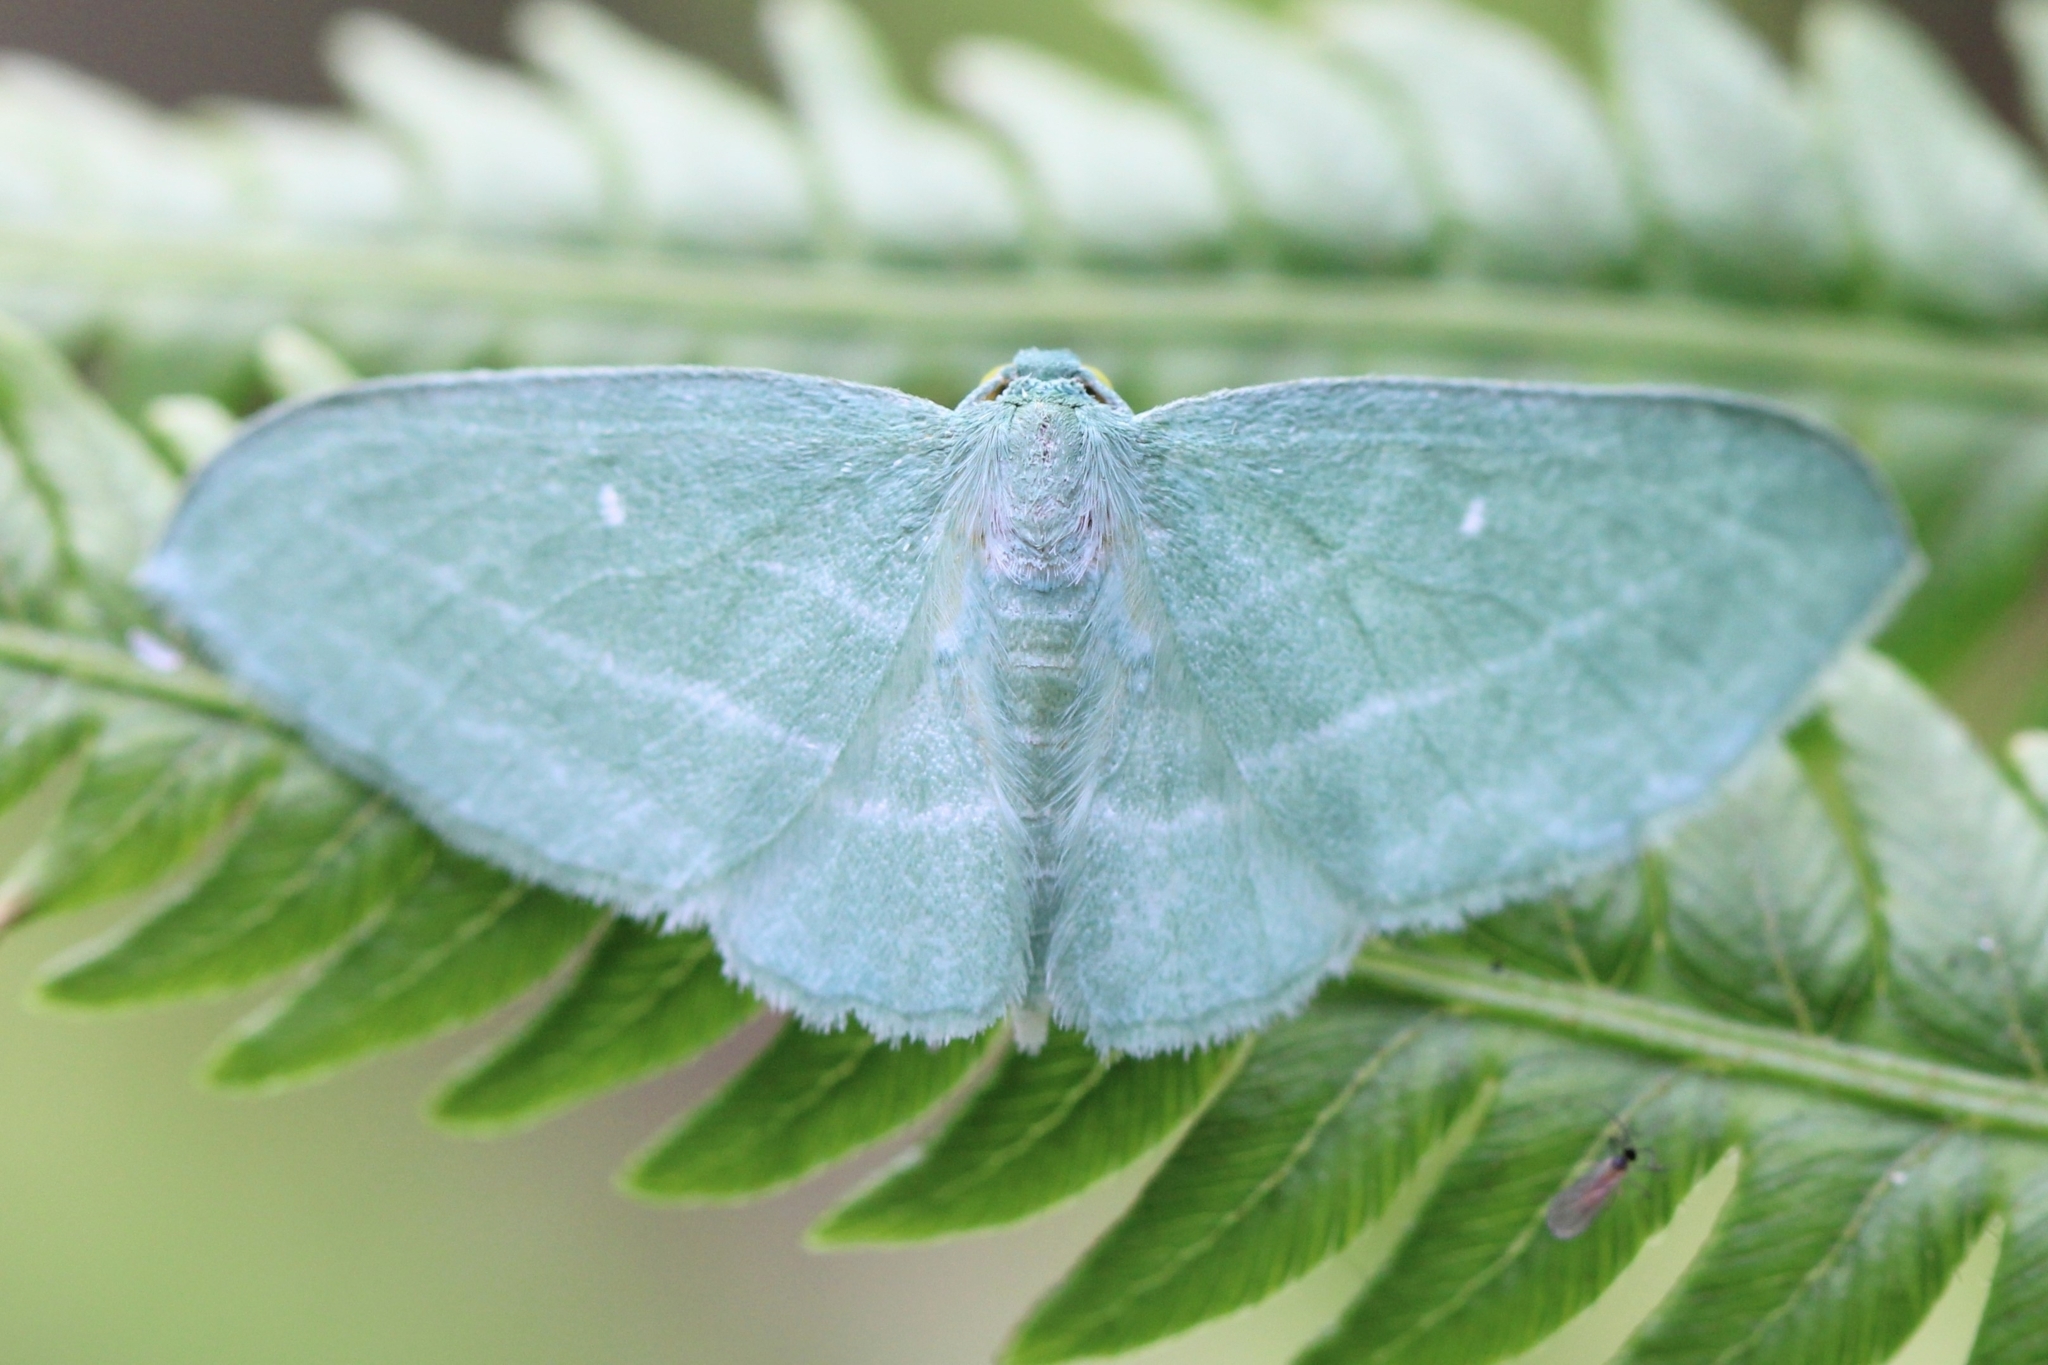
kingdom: Animalia
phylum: Arthropoda
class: Insecta
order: Lepidoptera
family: Geometridae
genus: Dyspteris
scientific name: Dyspteris abortivaria
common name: Bad-wing
